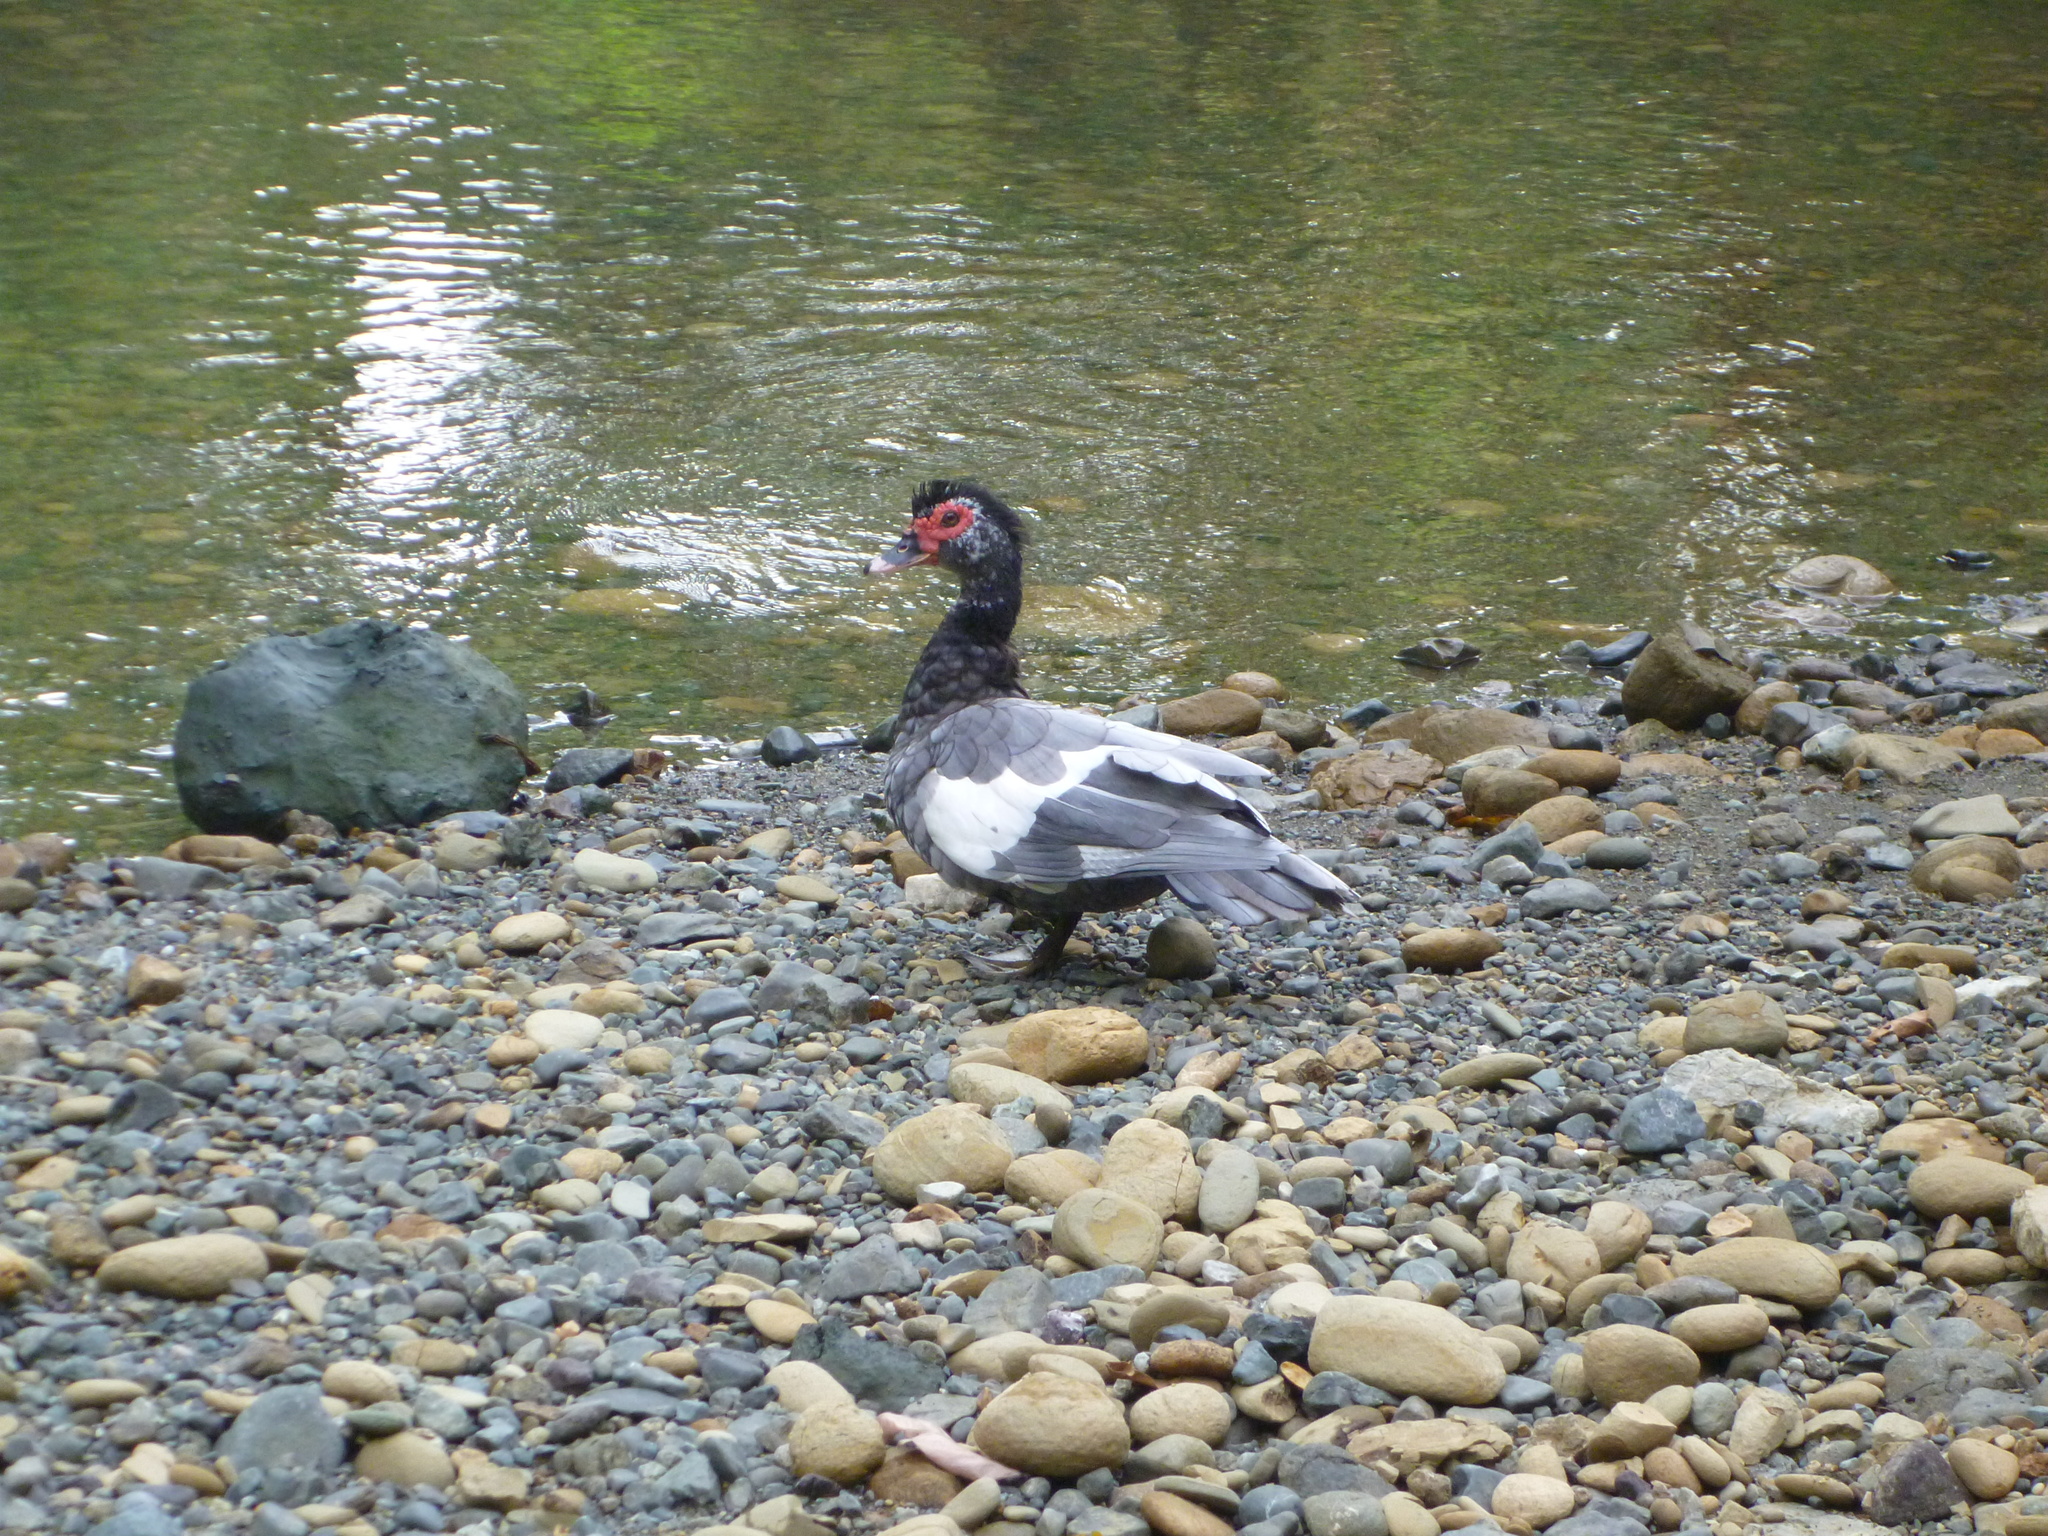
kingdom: Animalia
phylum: Chordata
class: Aves
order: Anseriformes
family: Anatidae
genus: Cairina
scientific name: Cairina moschata
